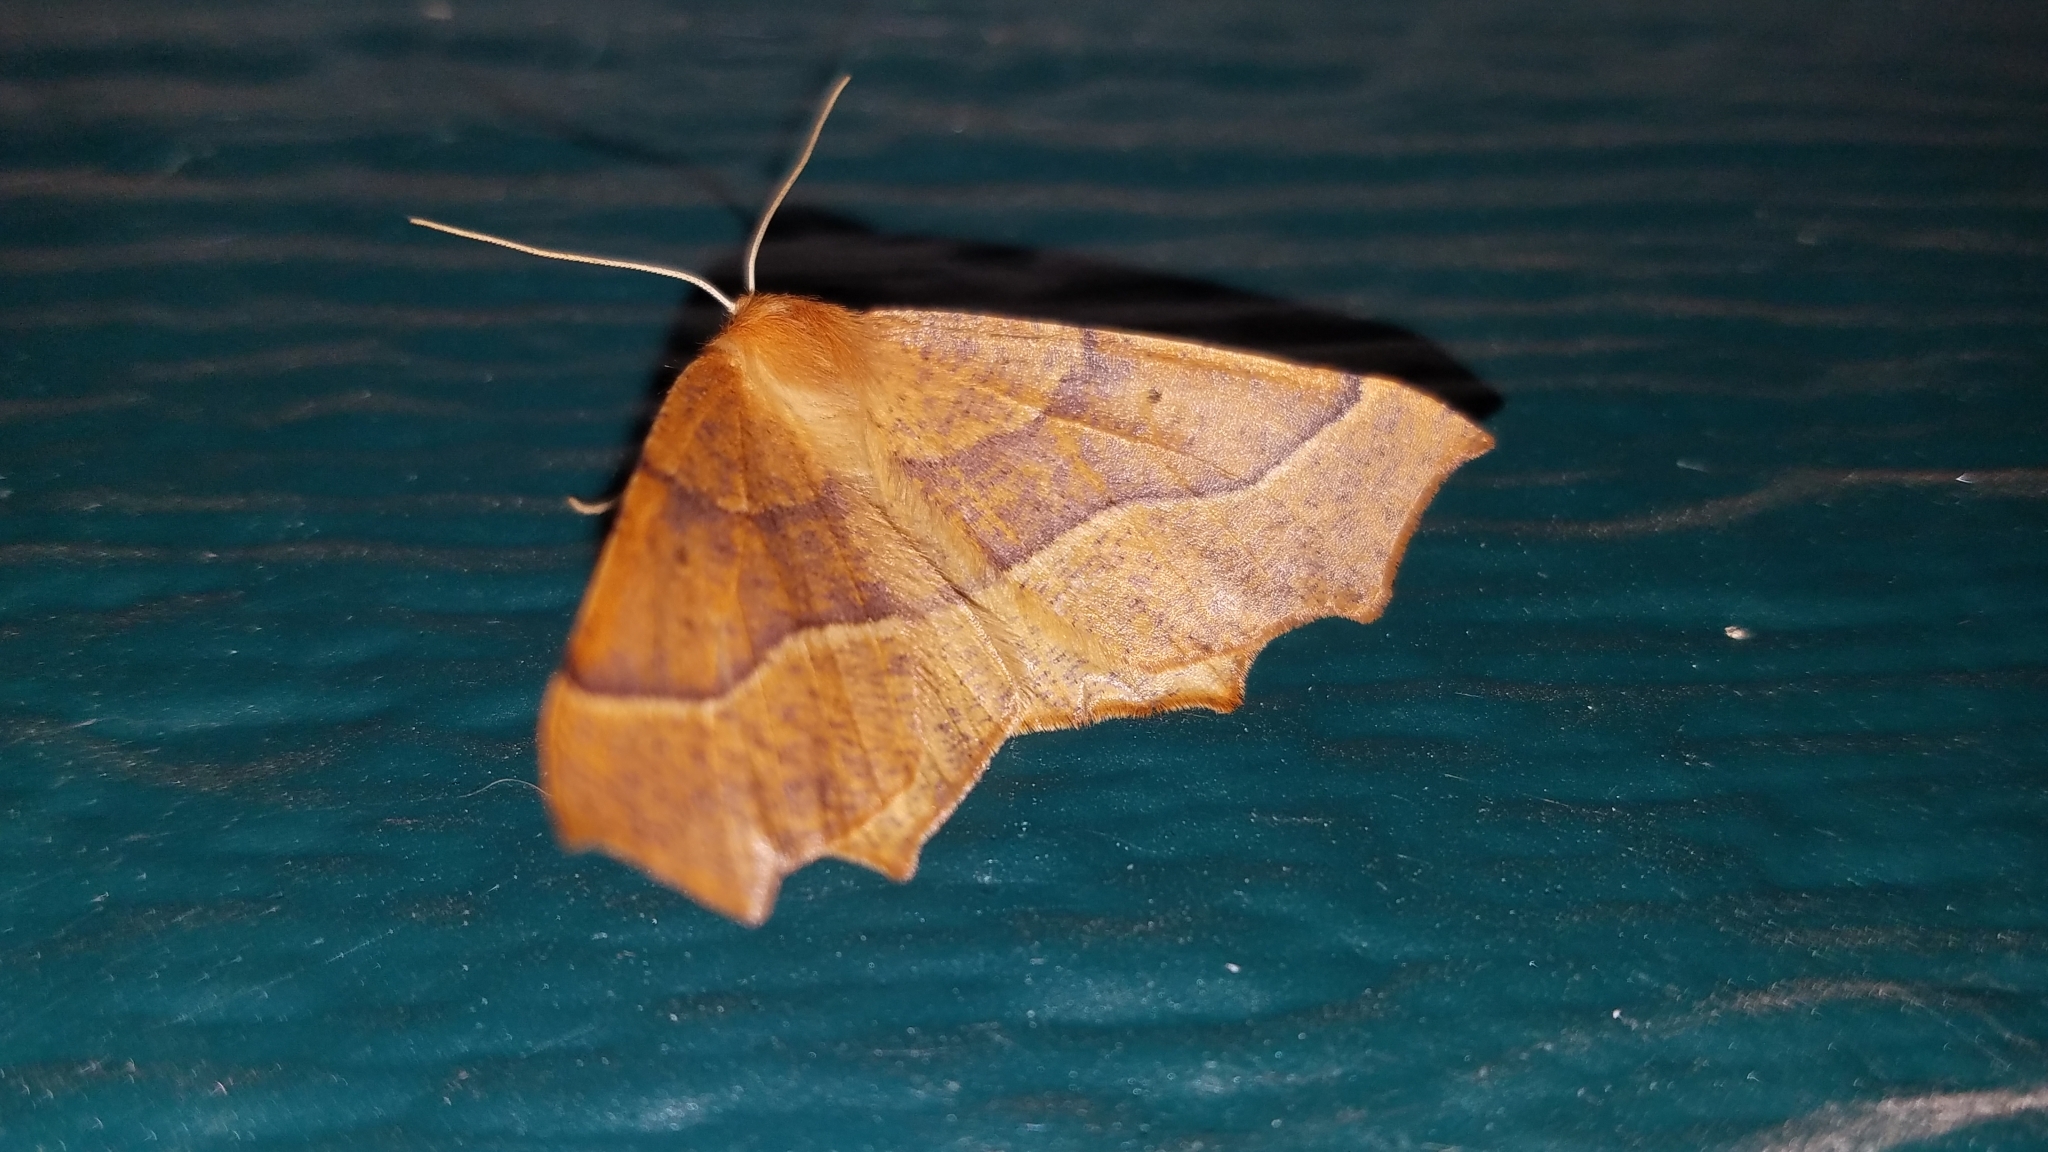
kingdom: Animalia
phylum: Arthropoda
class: Insecta
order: Lepidoptera
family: Geometridae
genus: Synaxis
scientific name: Synaxis jubararia
